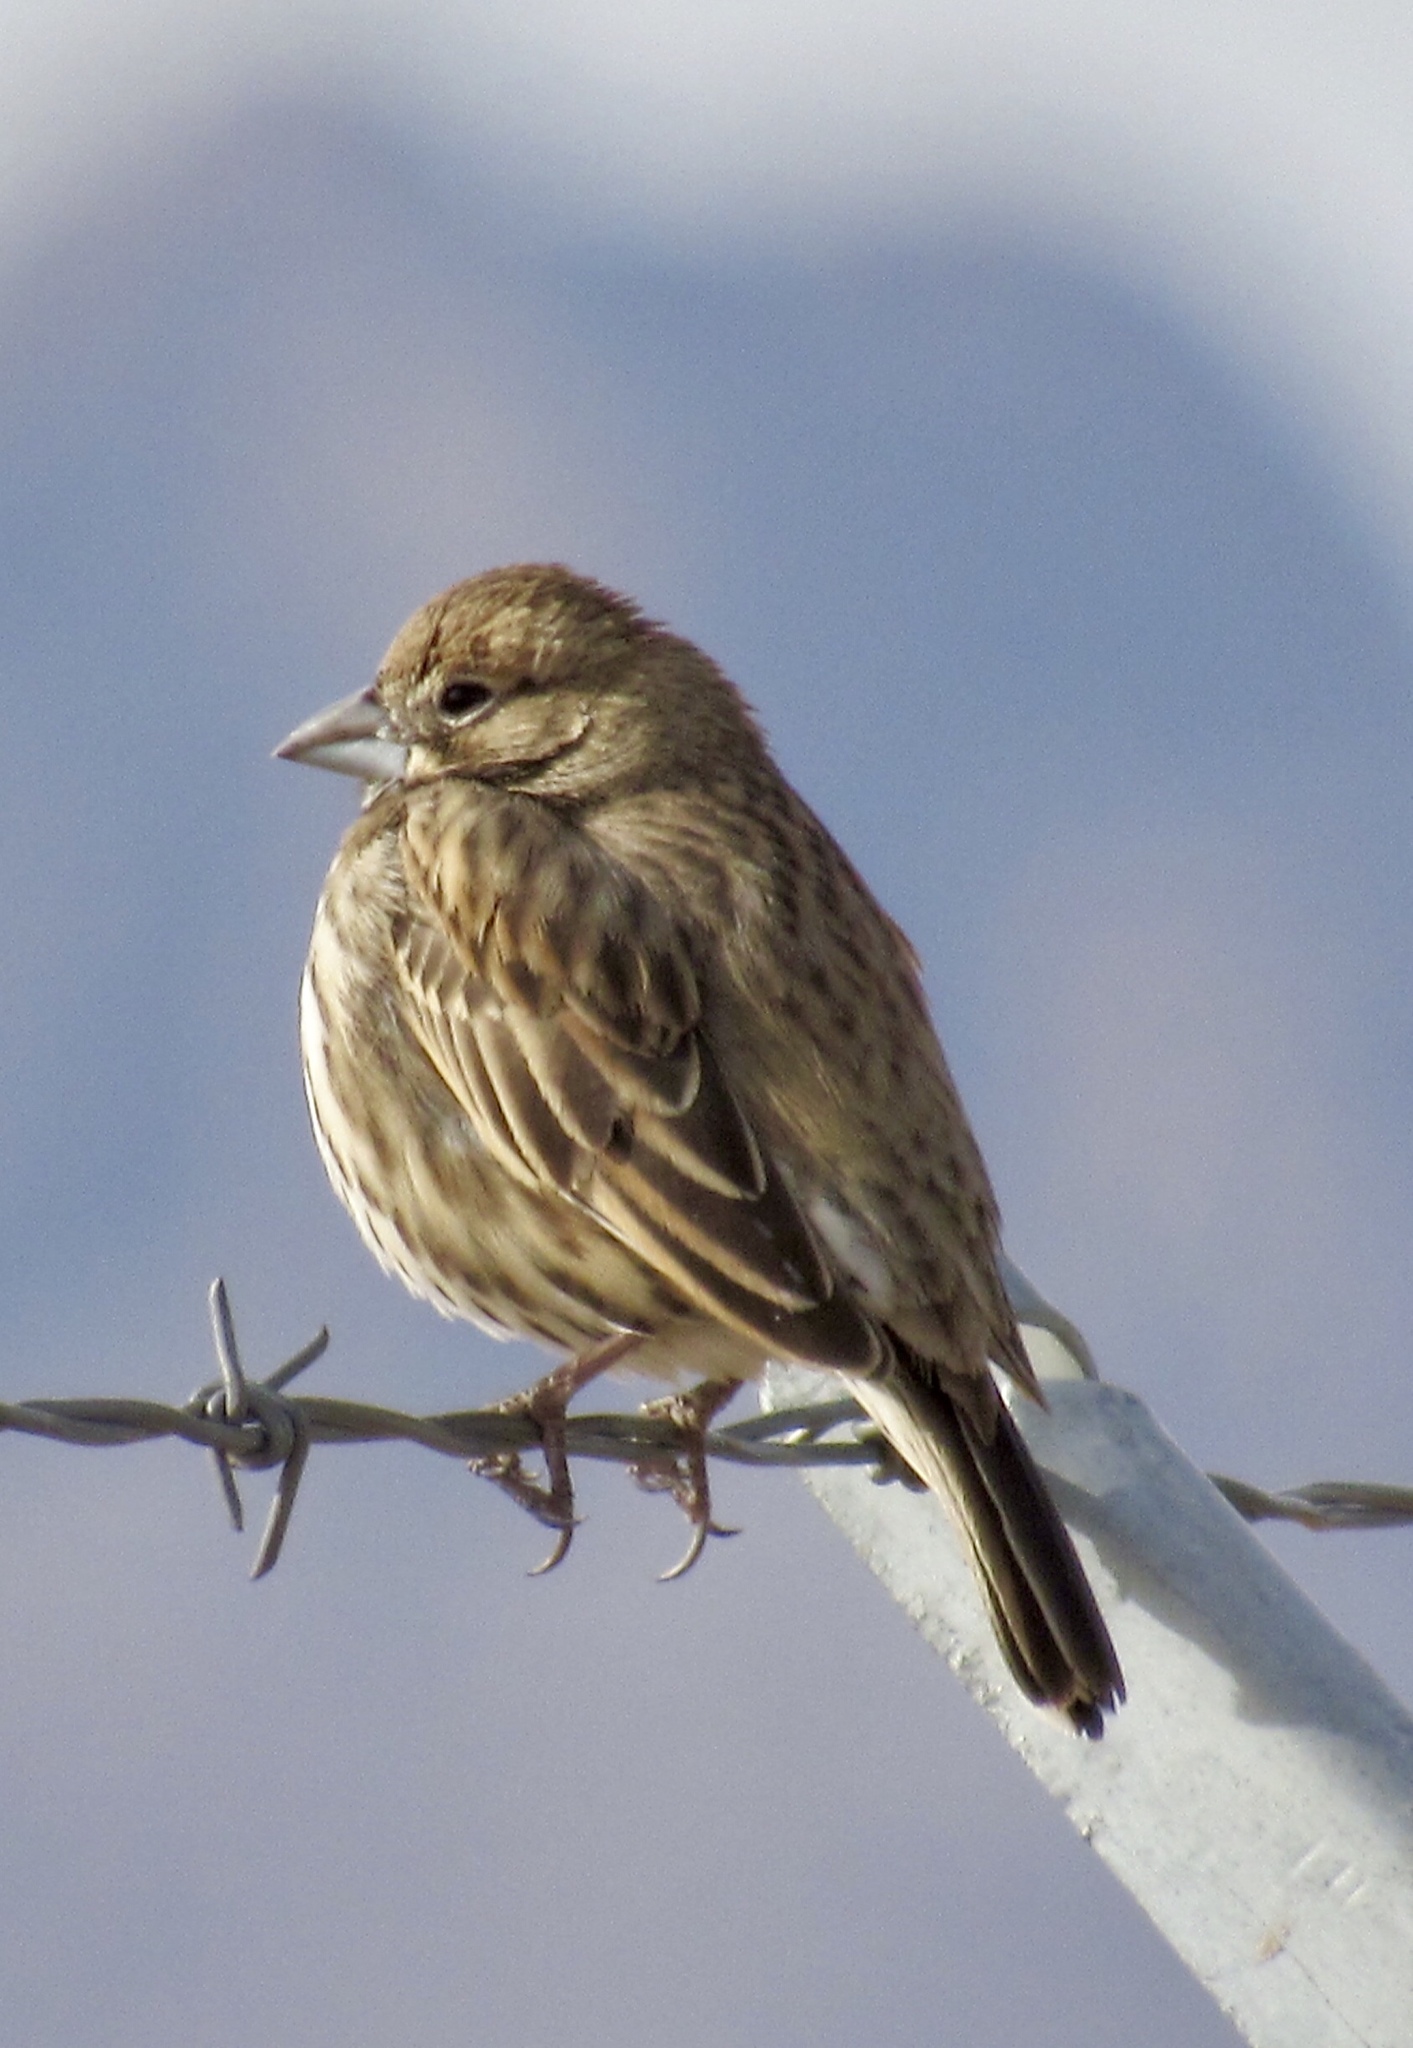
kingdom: Animalia
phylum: Chordata
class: Aves
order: Passeriformes
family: Passerellidae
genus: Calamospiza
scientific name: Calamospiza melanocorys
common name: Lark bunting
